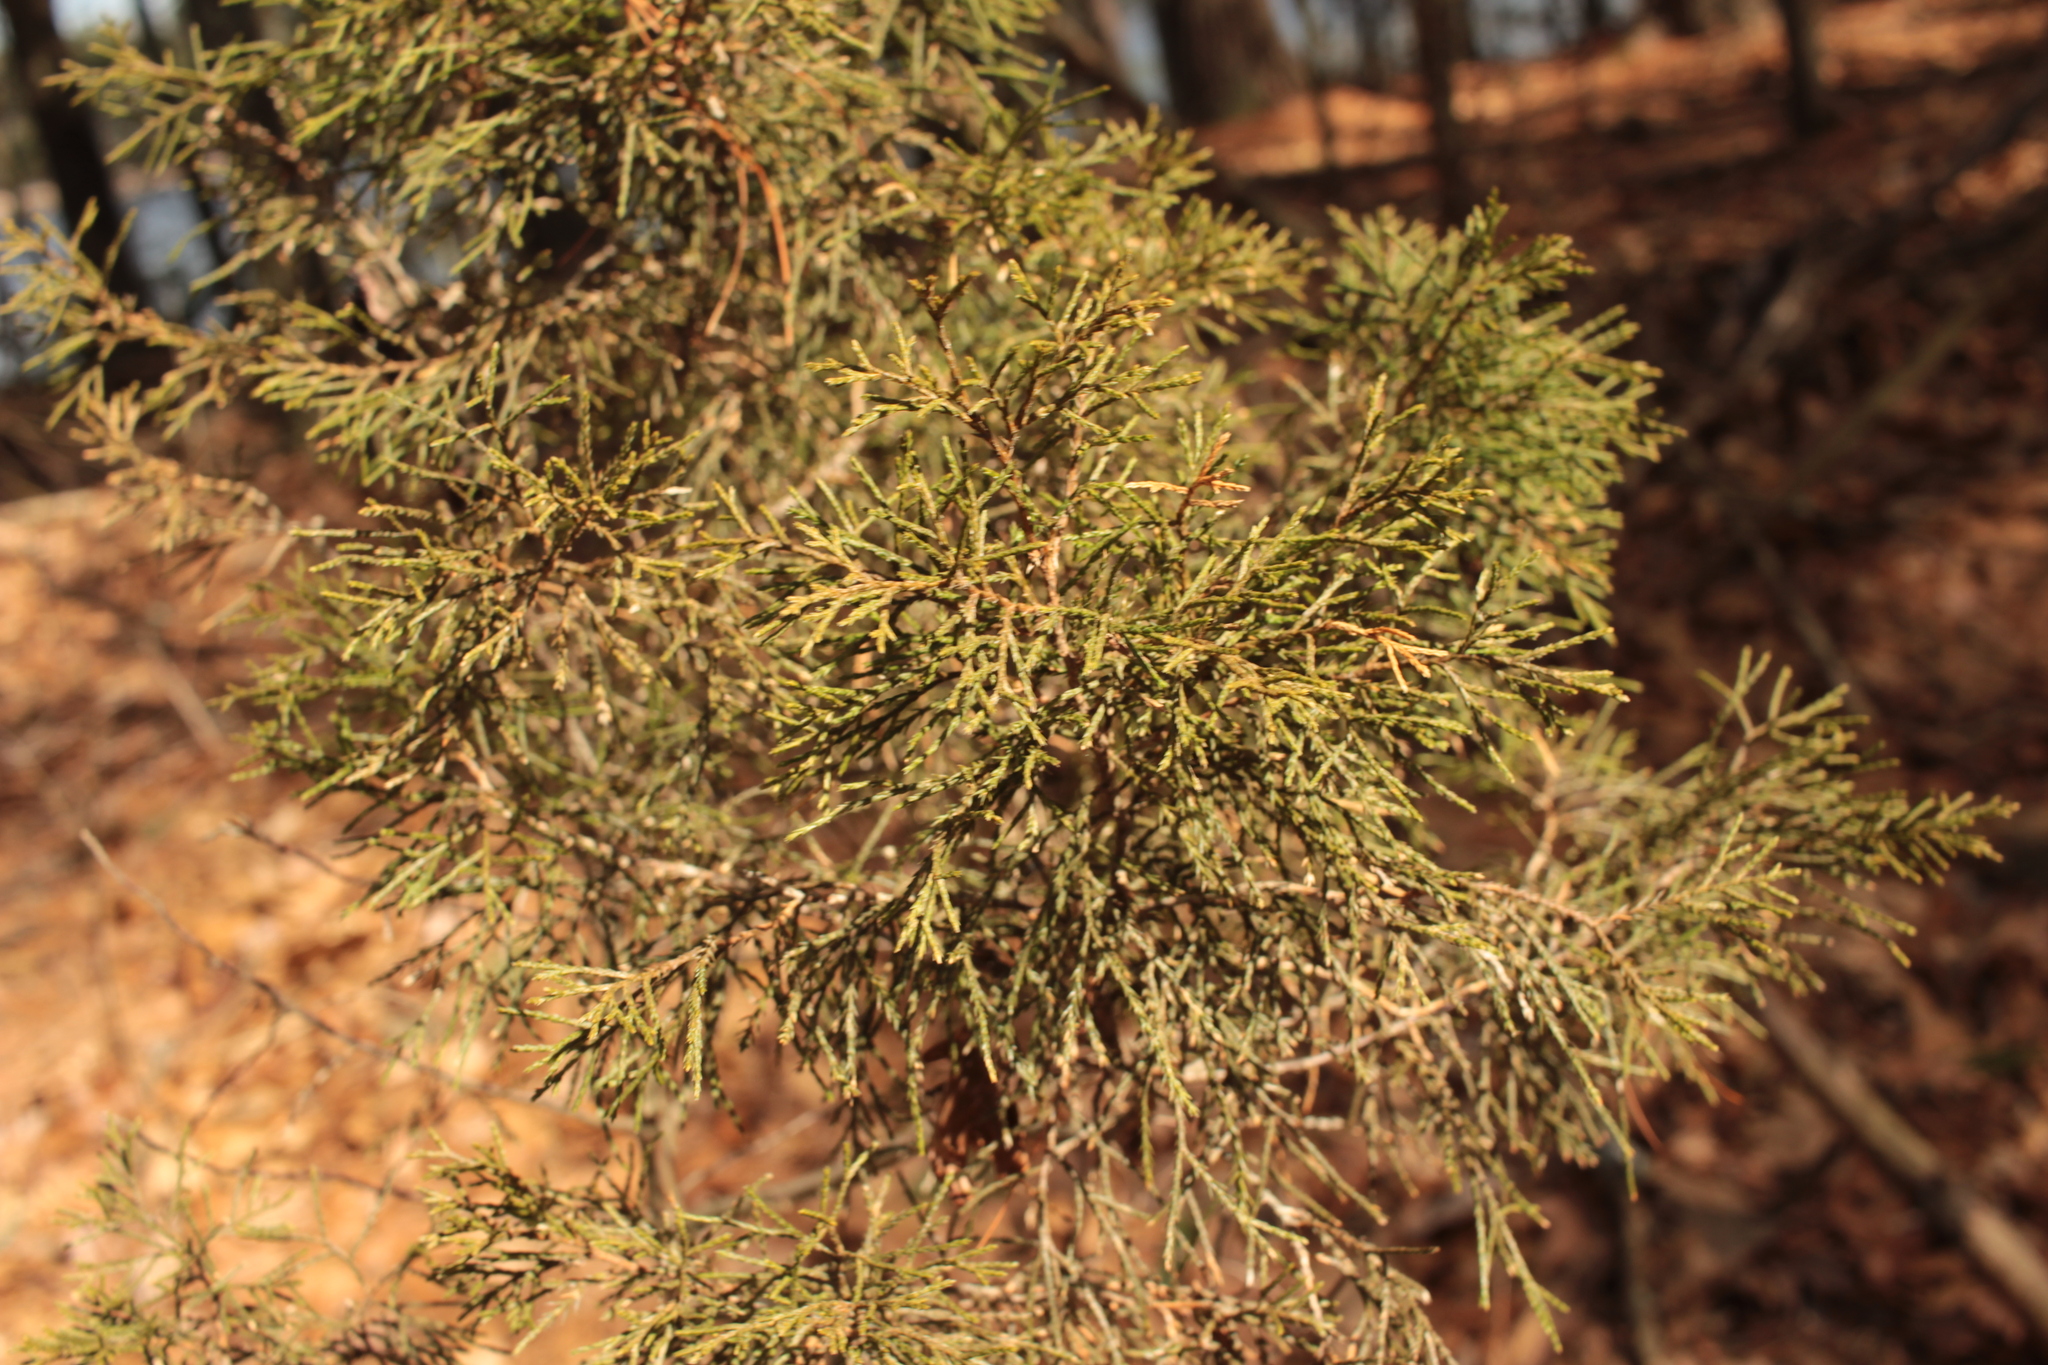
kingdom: Plantae
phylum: Tracheophyta
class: Pinopsida
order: Pinales
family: Cupressaceae
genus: Juniperus
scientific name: Juniperus virginiana
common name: Red juniper
